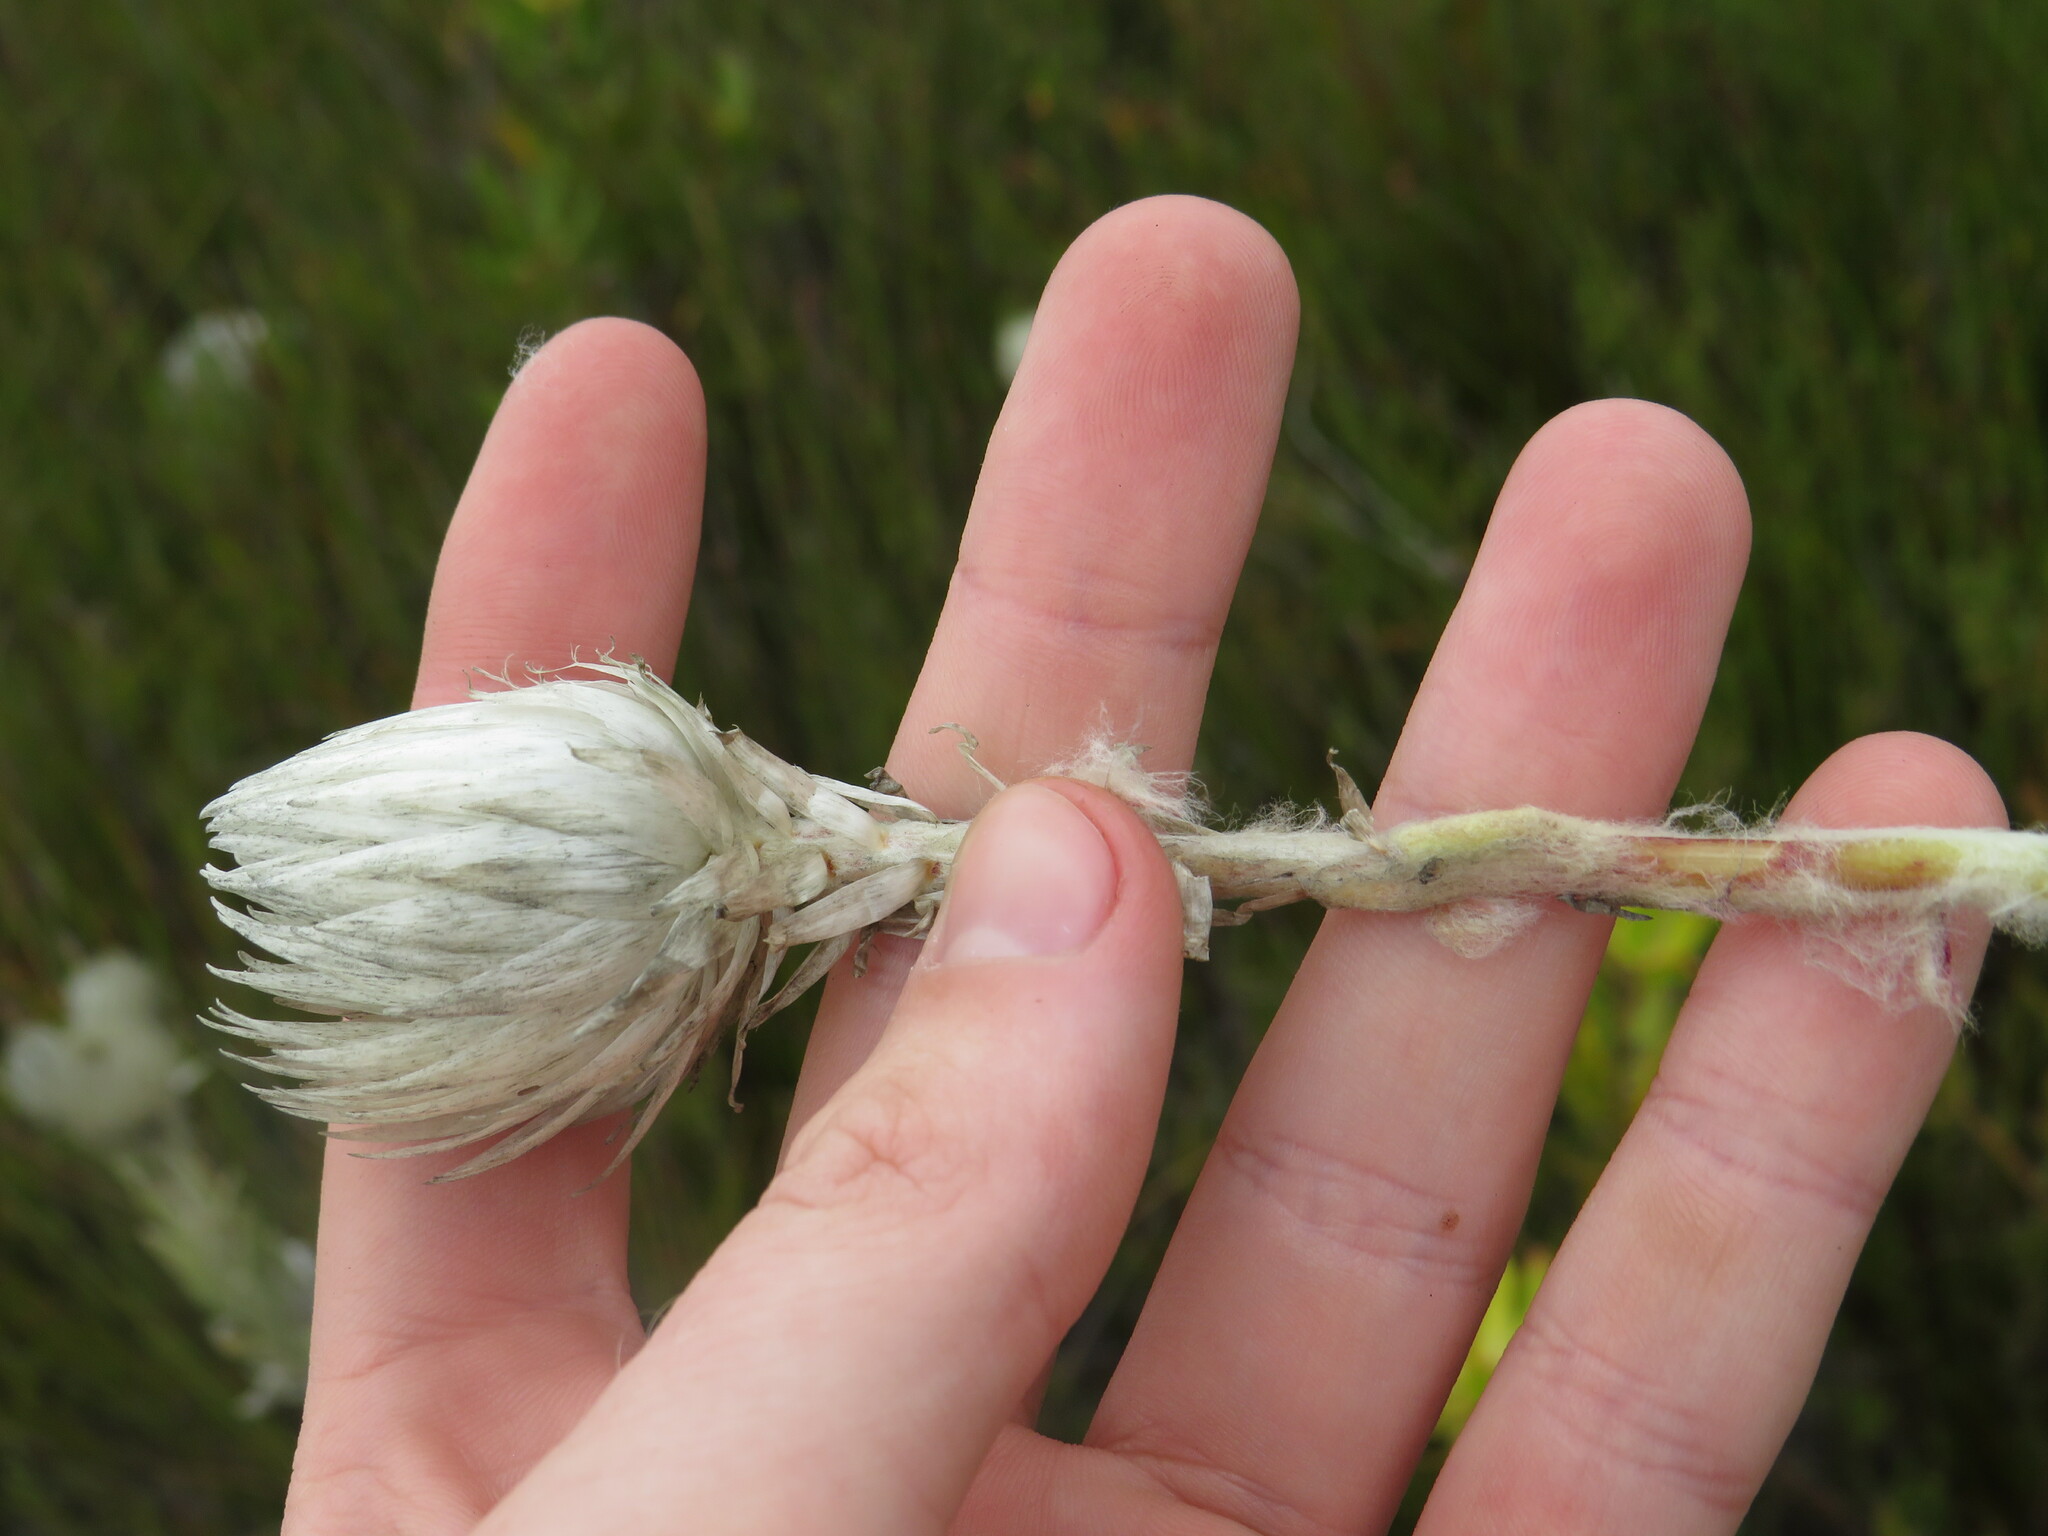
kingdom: Plantae
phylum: Tracheophyta
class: Magnoliopsida
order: Asterales
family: Asteraceae
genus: Syncarpha
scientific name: Syncarpha vestita
